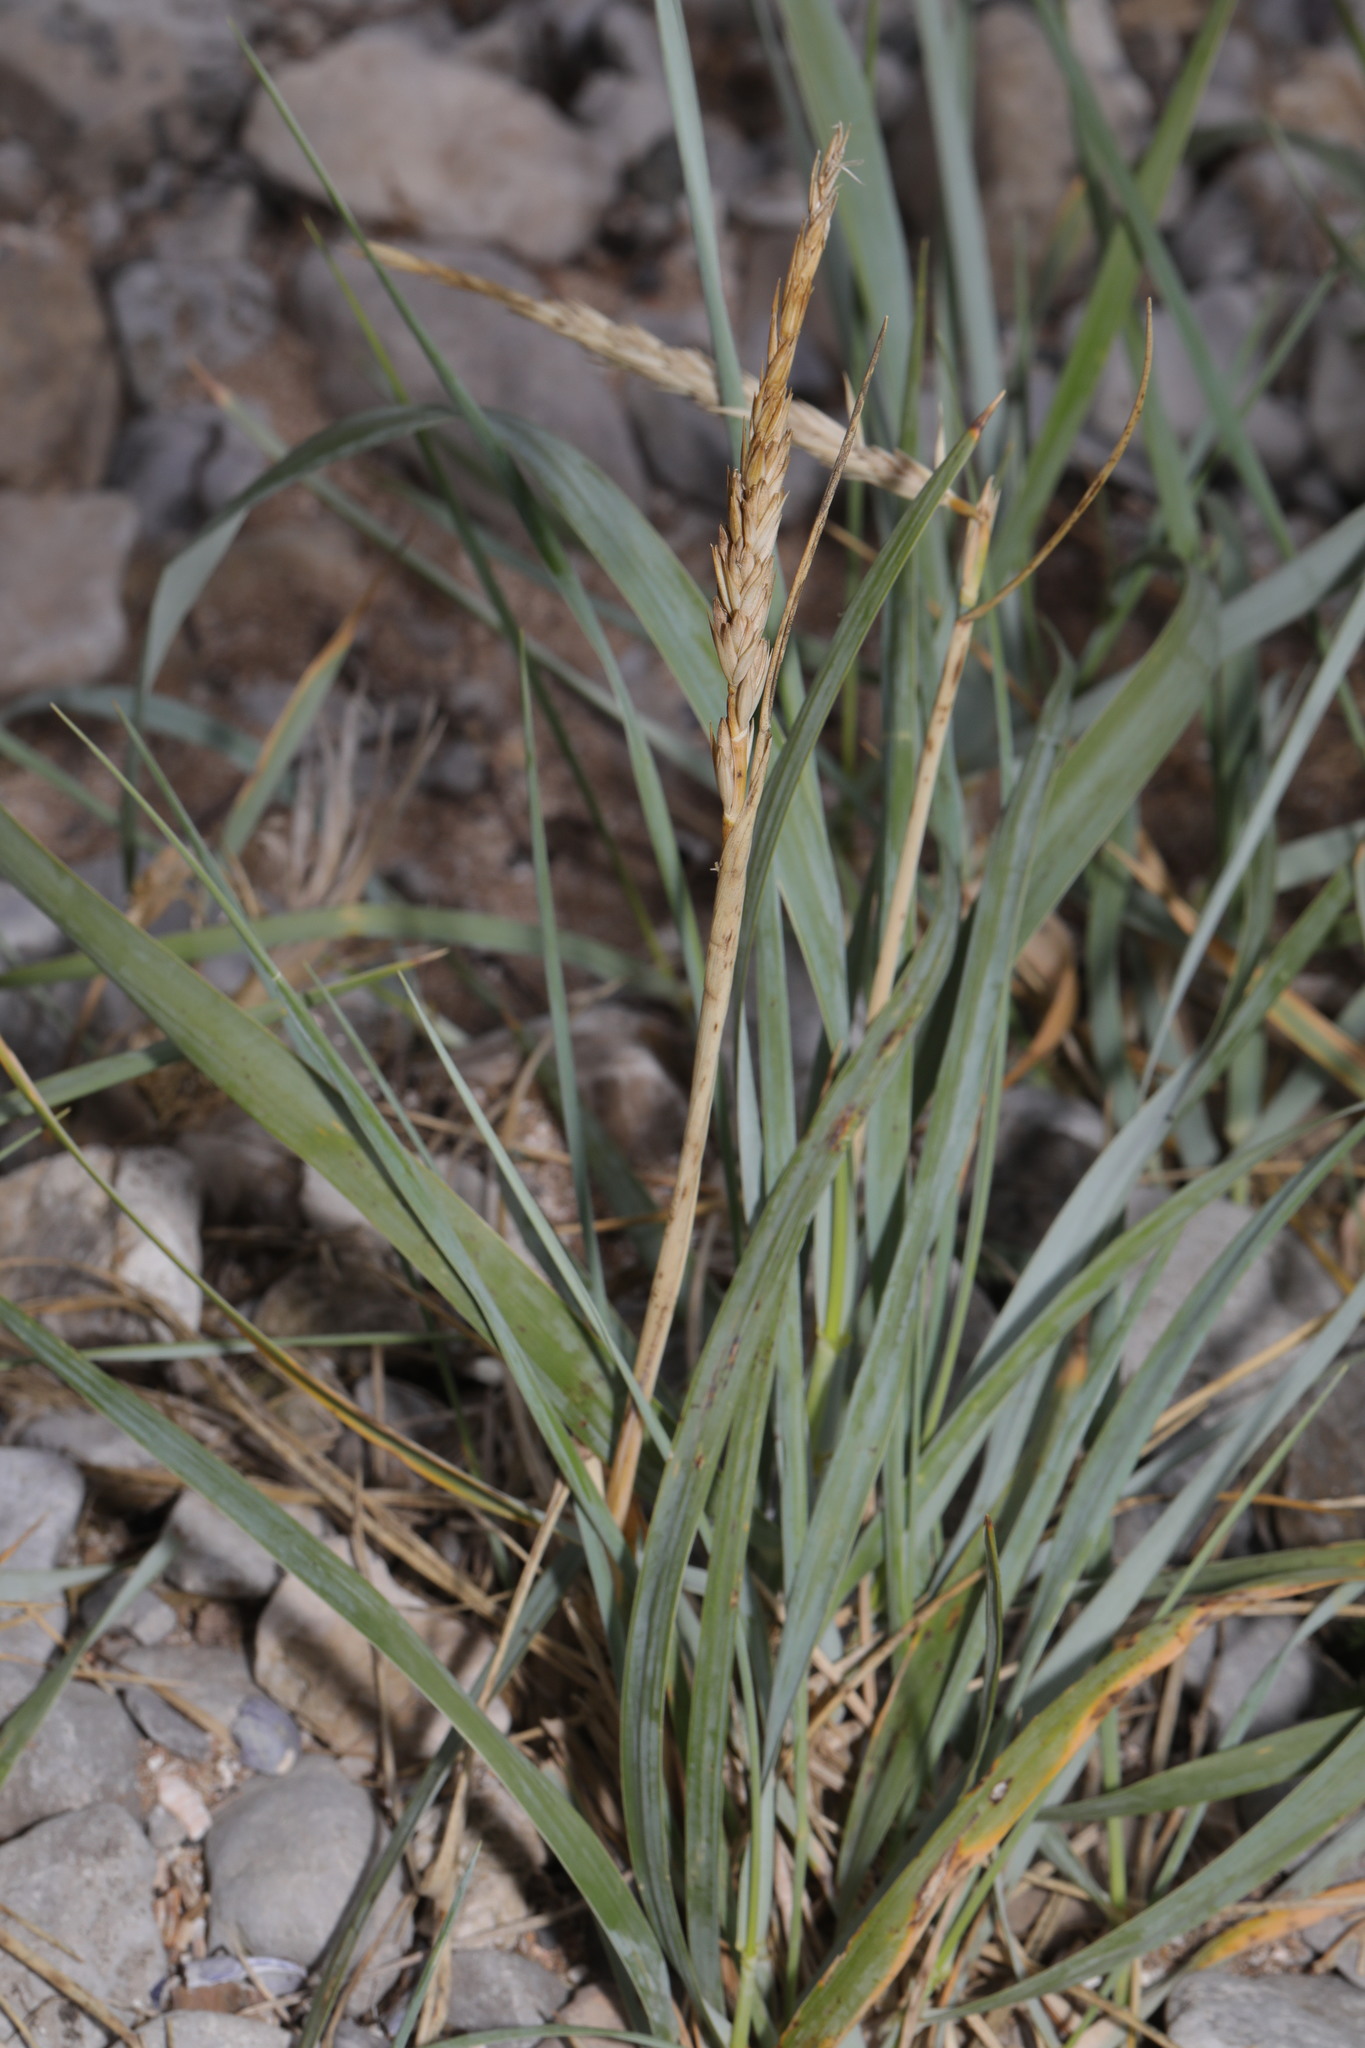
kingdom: Plantae
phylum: Tracheophyta
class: Liliopsida
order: Poales
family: Poaceae
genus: Leymus
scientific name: Leymus arenarius
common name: Lyme-grass
